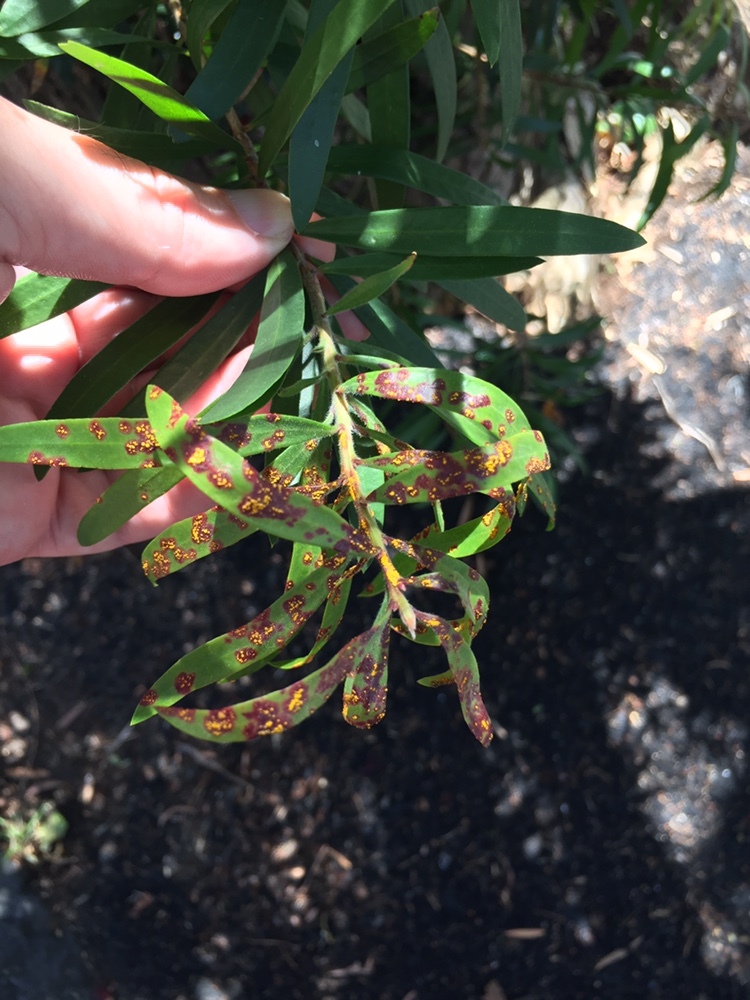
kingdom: Fungi
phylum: Basidiomycota
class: Pucciniomycetes
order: Pucciniales
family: Sphaerophragmiaceae
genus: Austropuccinia
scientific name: Austropuccinia psidii
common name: Myrtle rust
